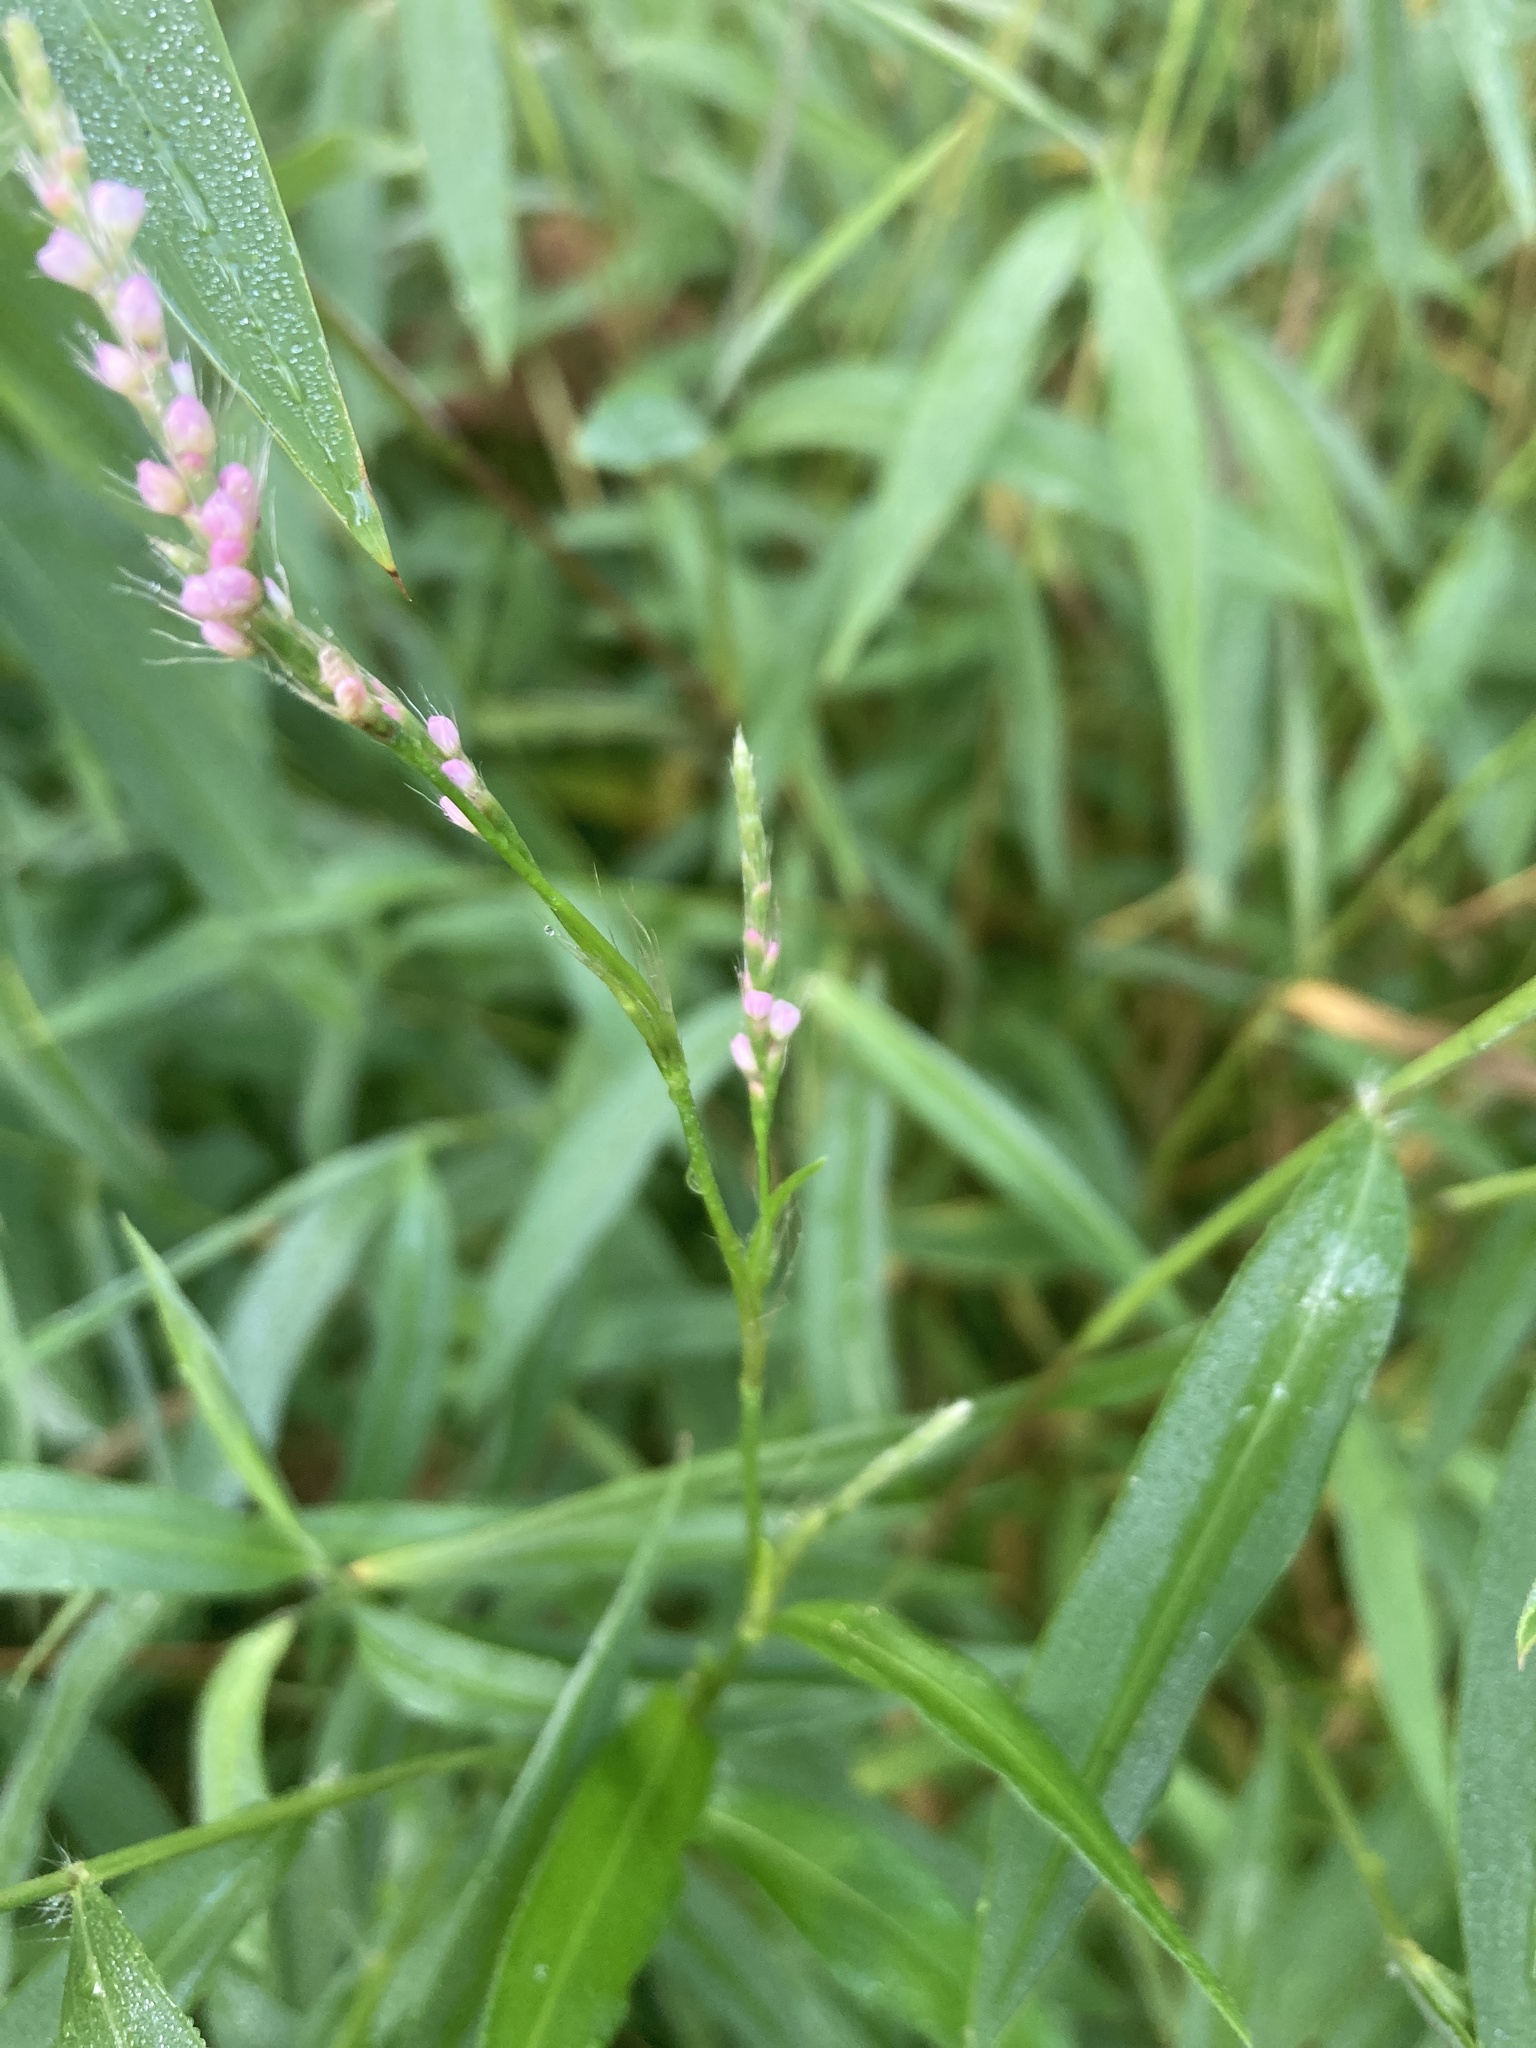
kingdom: Plantae
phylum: Tracheophyta
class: Magnoliopsida
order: Caryophyllales
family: Polygonaceae
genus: Persicaria
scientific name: Persicaria longiseta
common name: Bristly lady's-thumb
